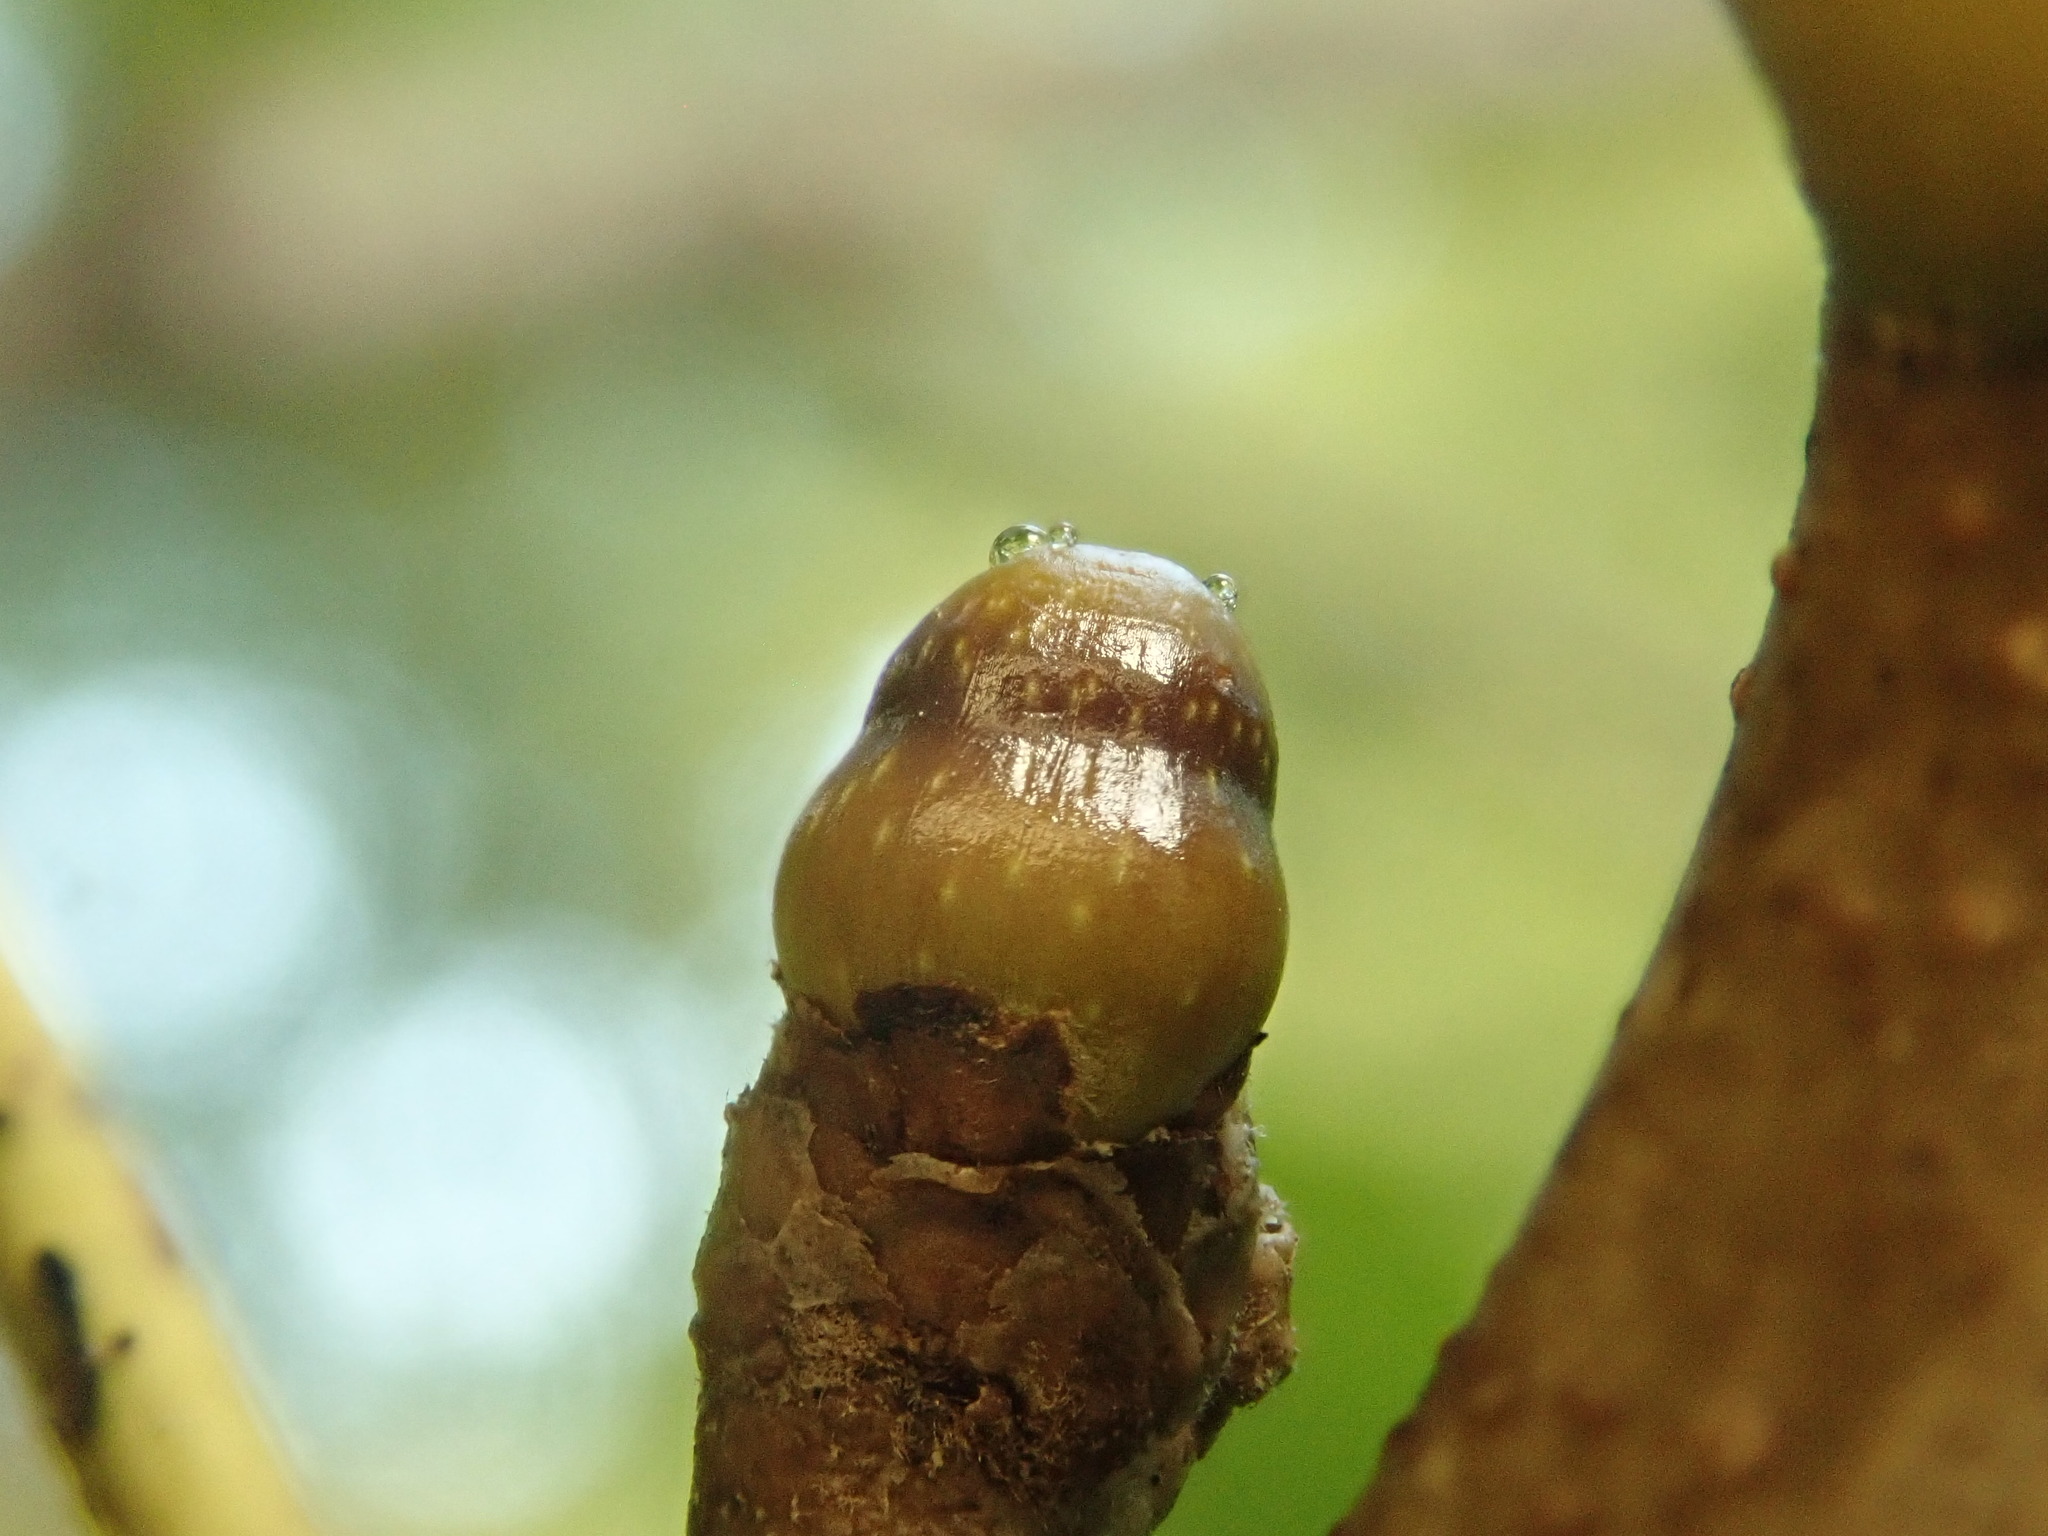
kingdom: Animalia
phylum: Arthropoda
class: Insecta
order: Hymenoptera
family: Cynipidae
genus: Callirhytis
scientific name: Callirhytis
